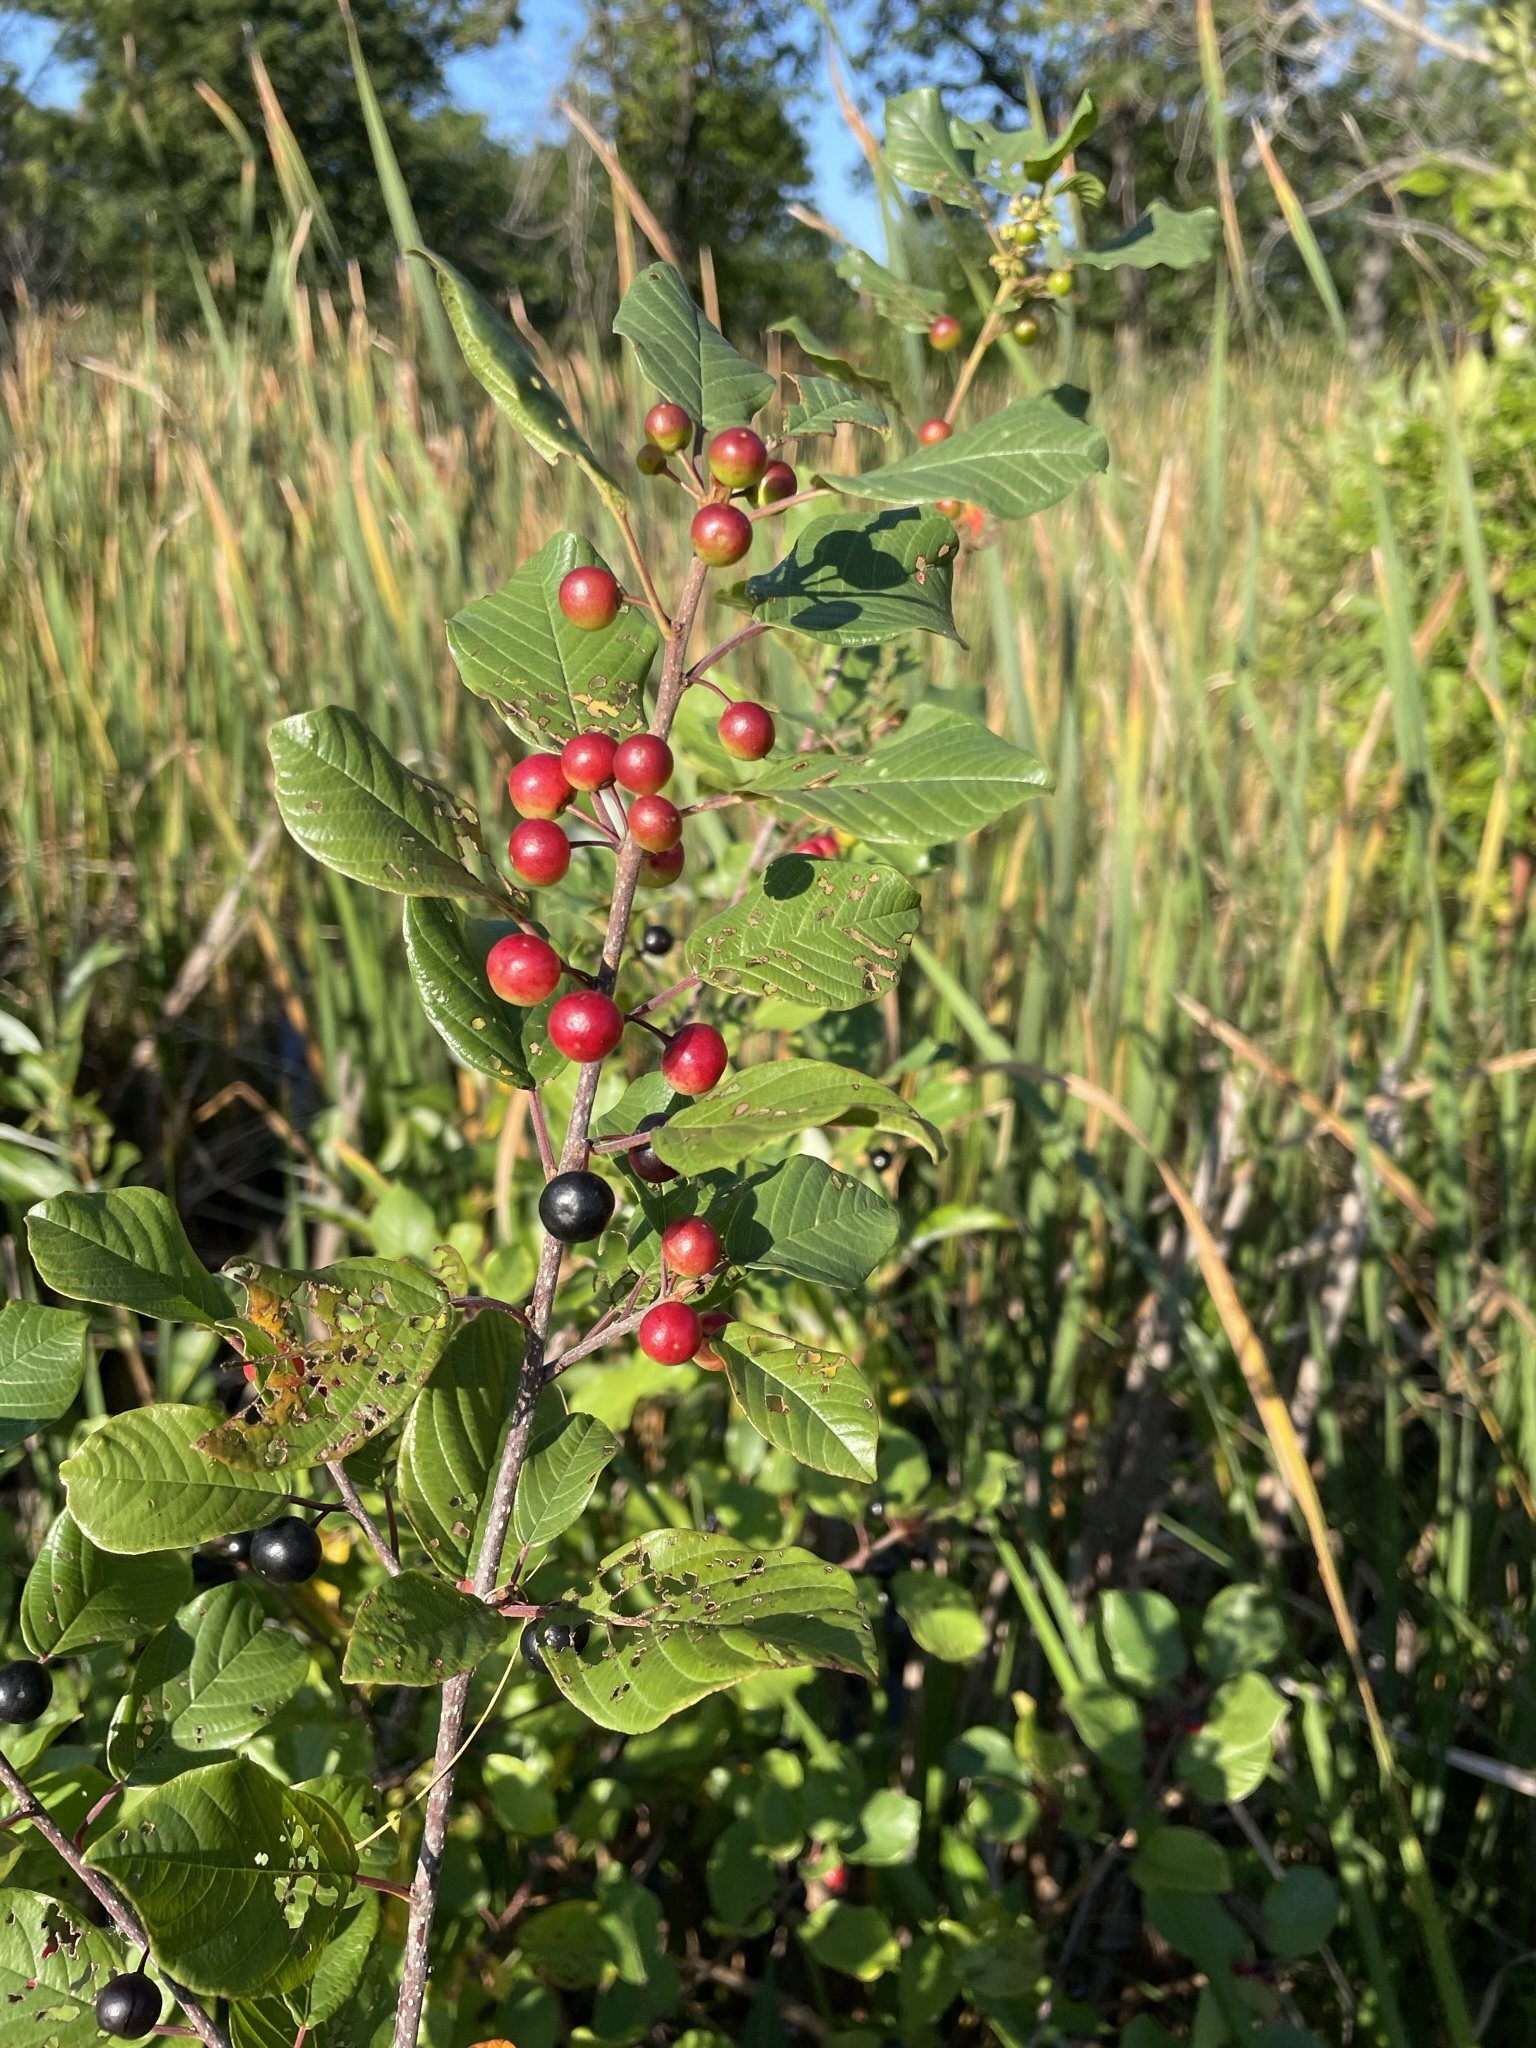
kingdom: Plantae
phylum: Tracheophyta
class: Magnoliopsida
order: Rosales
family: Rhamnaceae
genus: Frangula
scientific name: Frangula alnus
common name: Alder buckthorn
